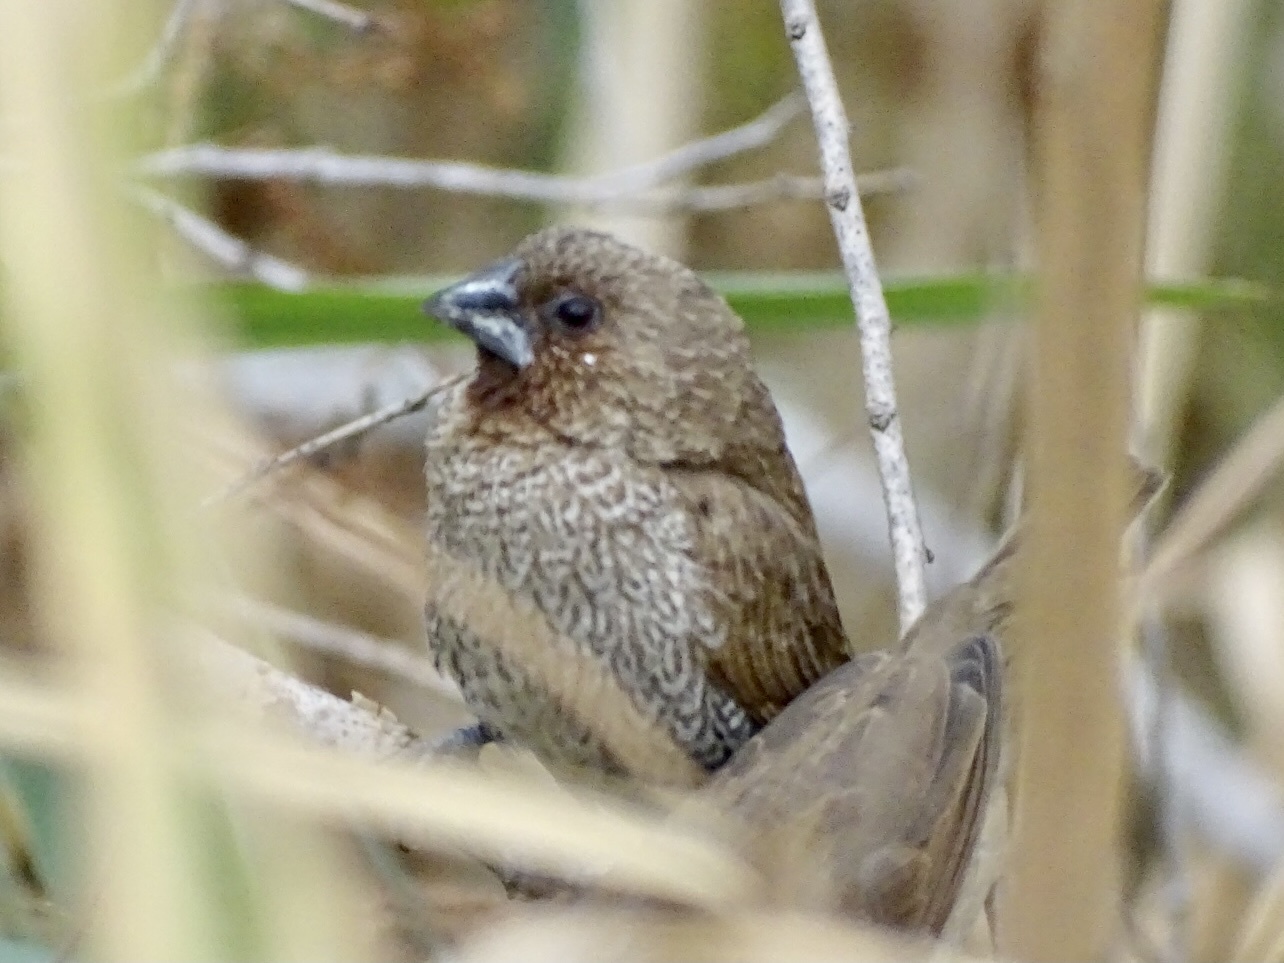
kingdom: Animalia
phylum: Chordata
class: Aves
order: Passeriformes
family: Estrildidae
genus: Lonchura
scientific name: Lonchura punctulata
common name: Scaly-breasted munia
